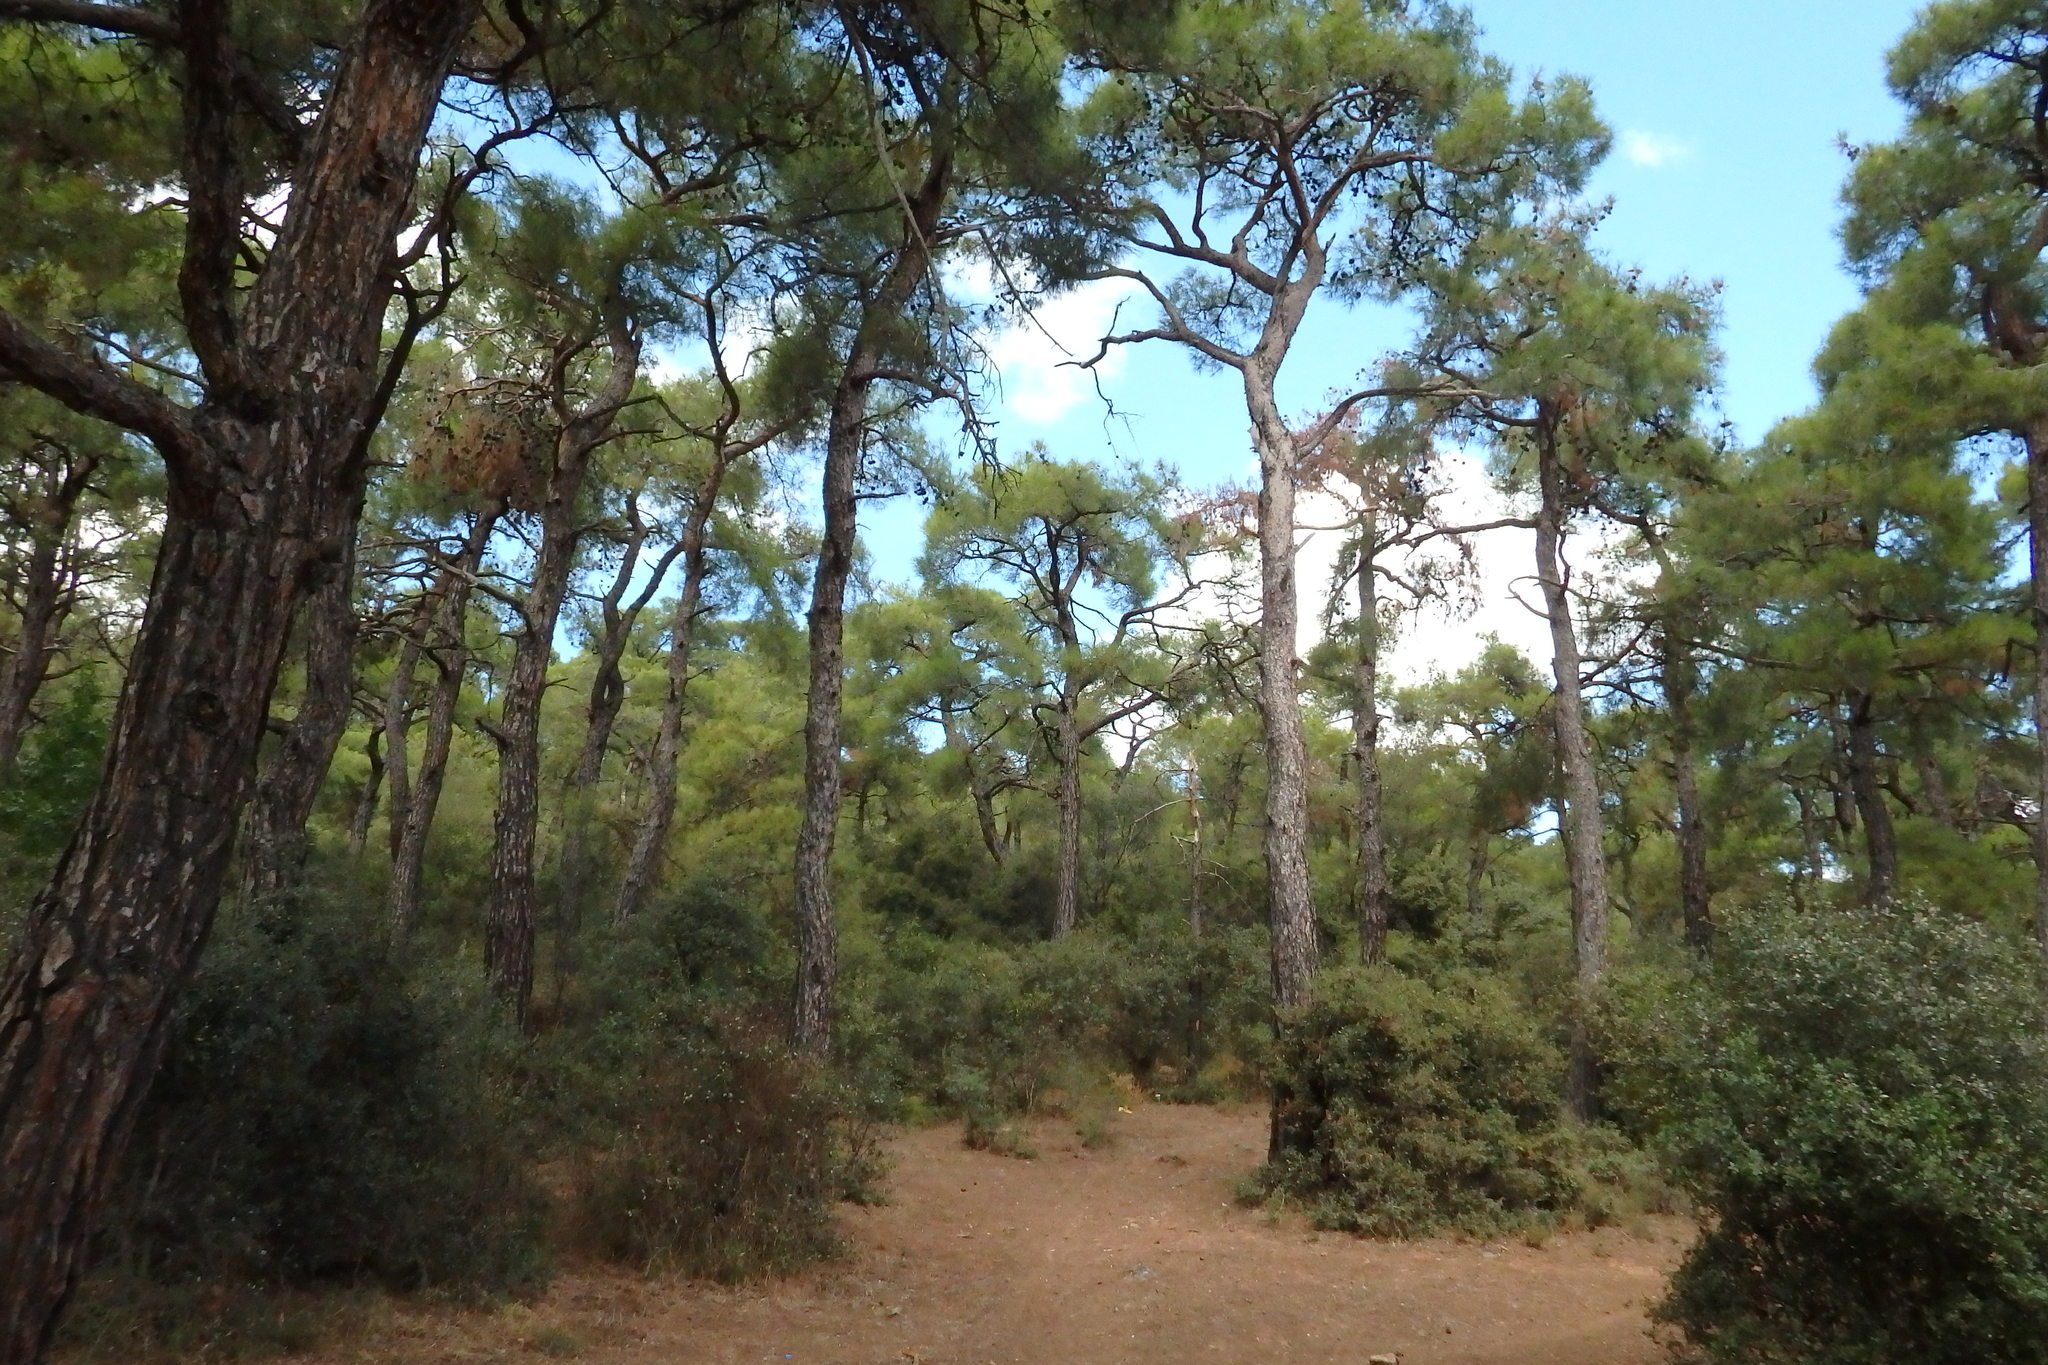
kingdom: Plantae
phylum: Tracheophyta
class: Pinopsida
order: Pinales
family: Pinaceae
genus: Pinus
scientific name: Pinus brutia
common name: Turkish pine
